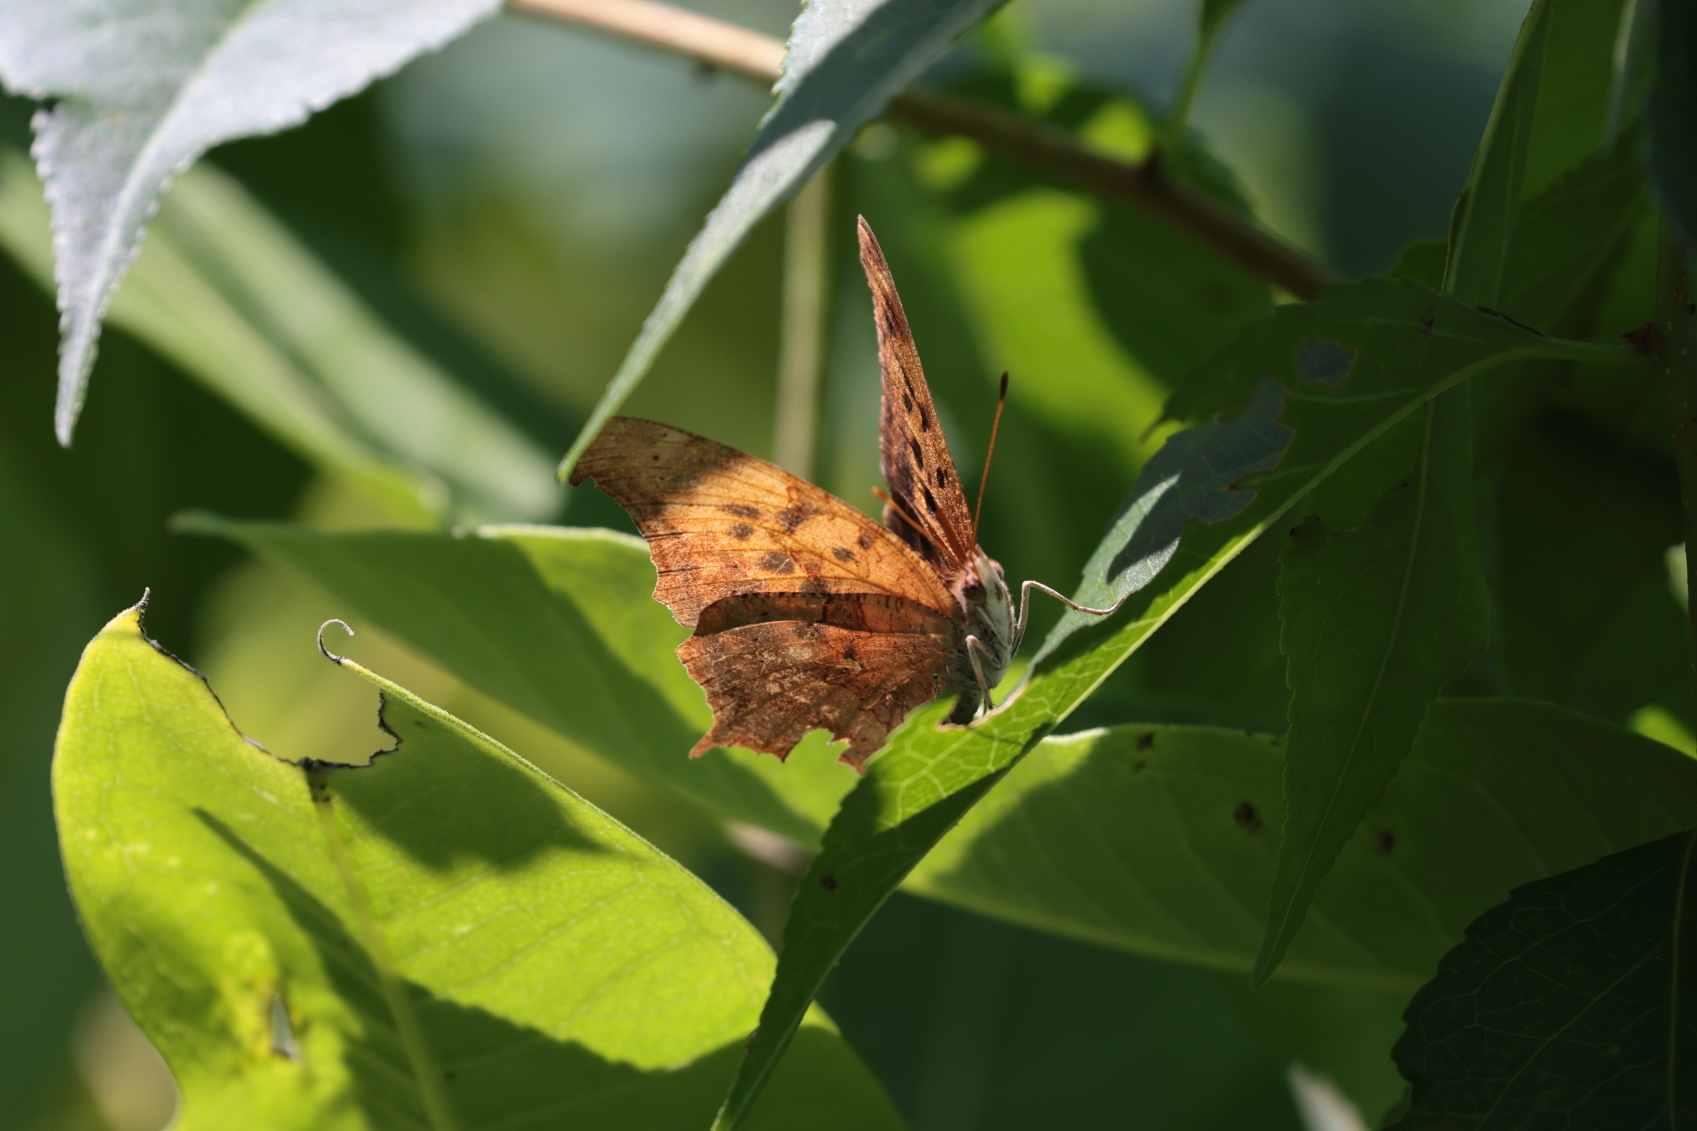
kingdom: Animalia
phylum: Arthropoda
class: Insecta
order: Lepidoptera
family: Nymphalidae
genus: Polygonia
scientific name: Polygonia interrogationis
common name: Question mark
